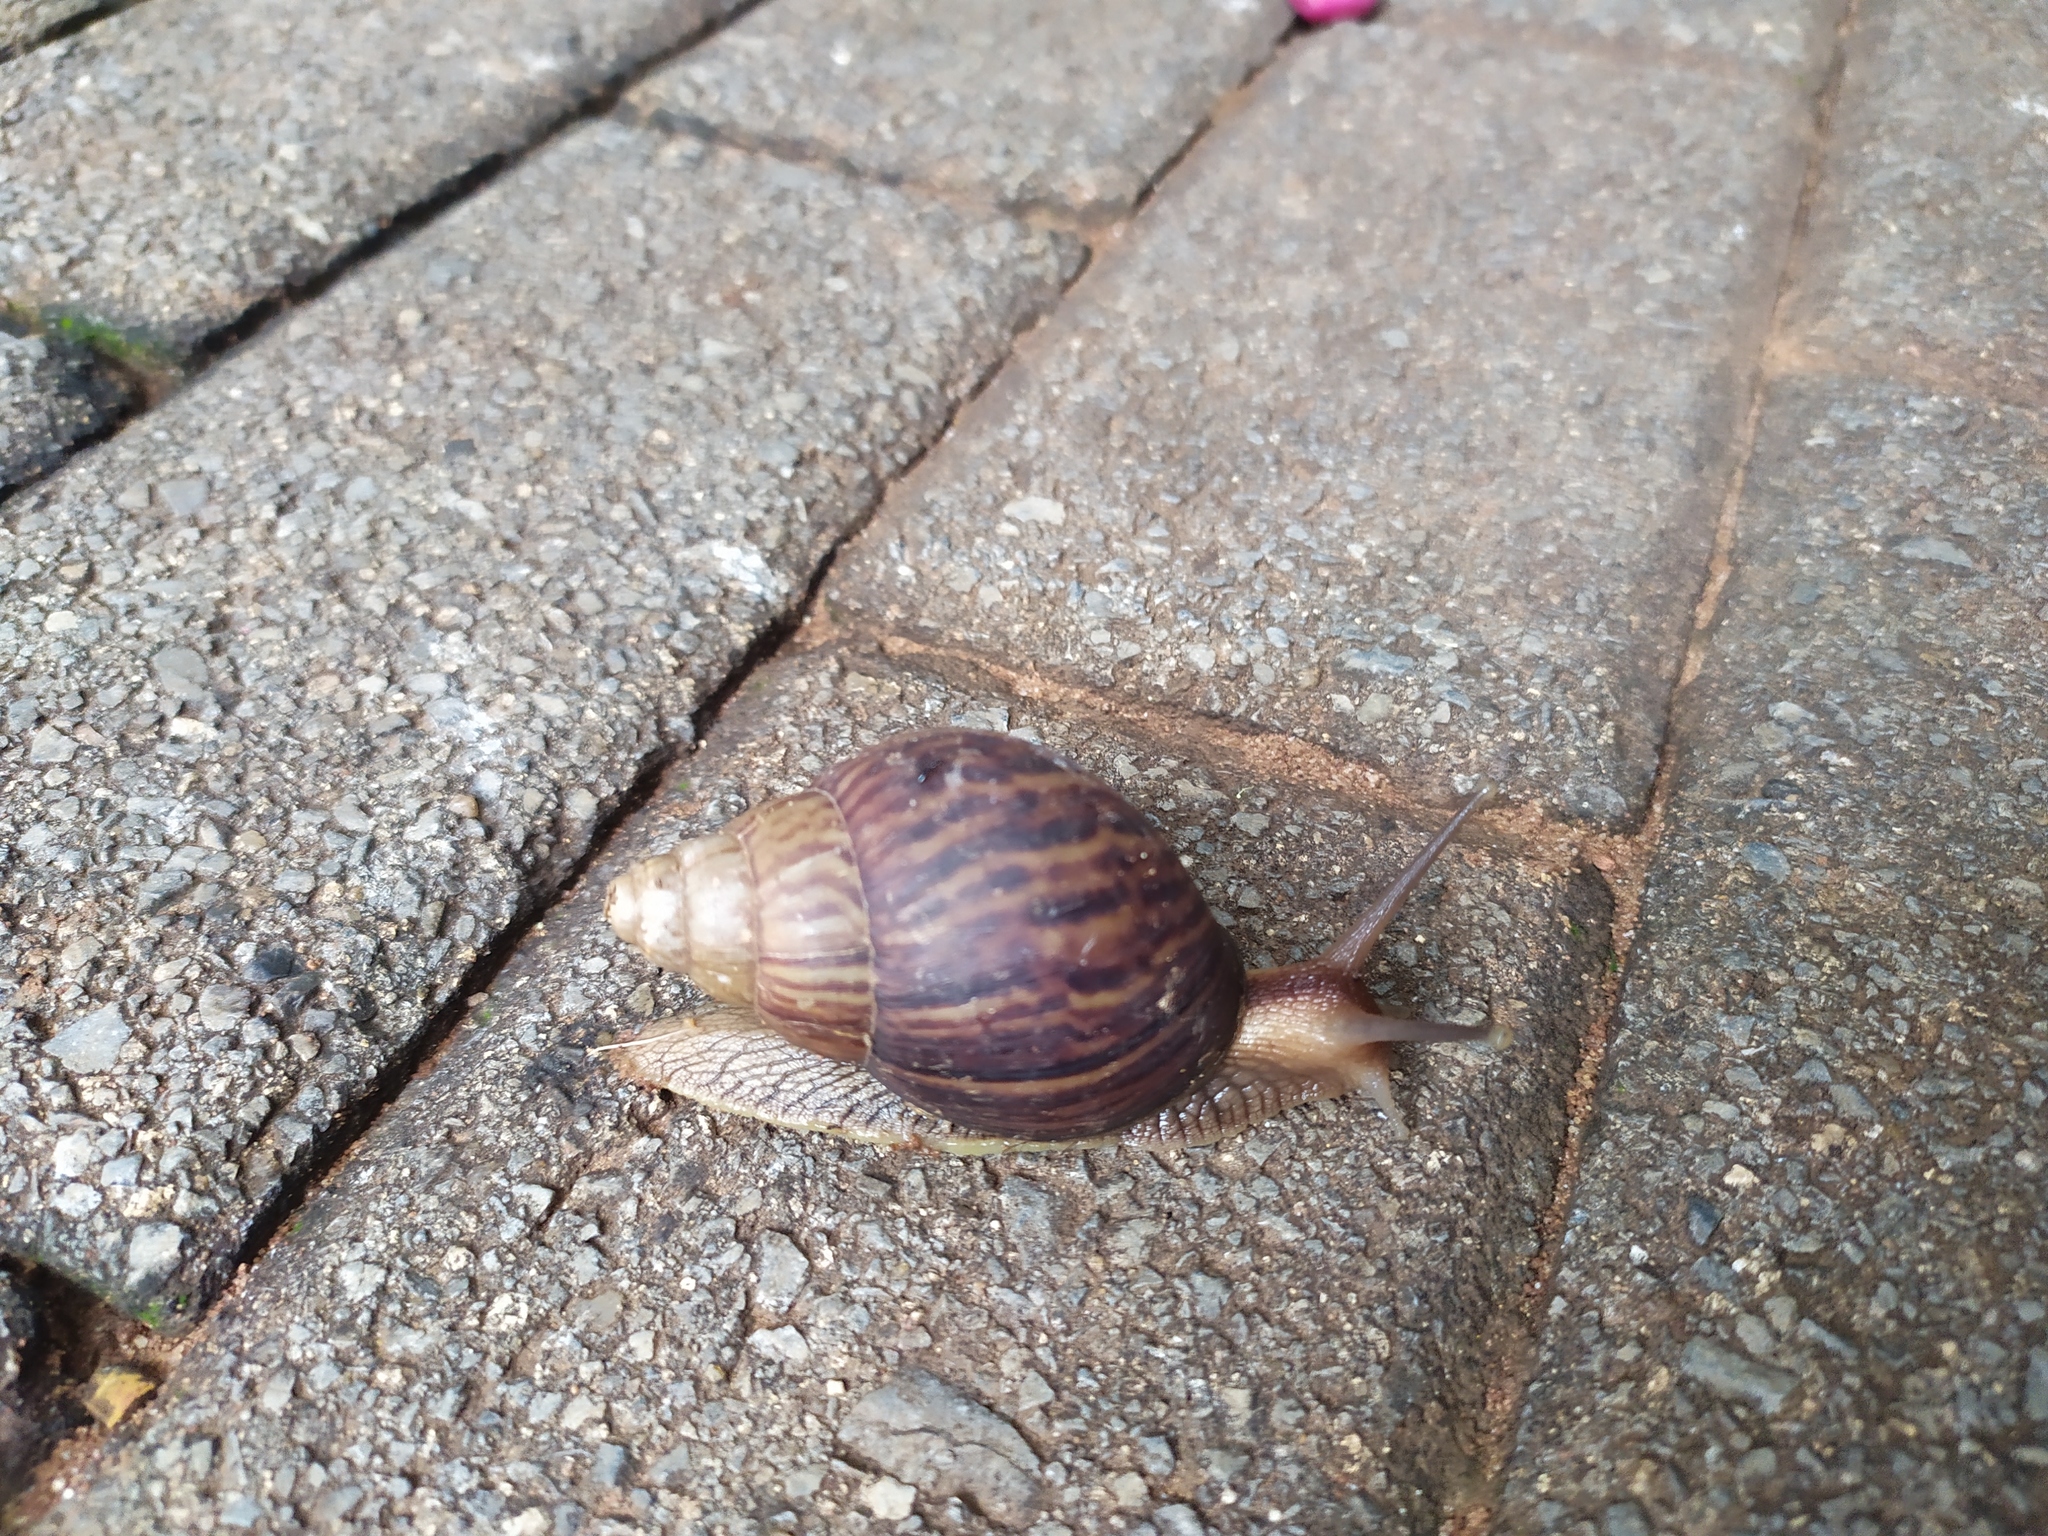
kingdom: Animalia
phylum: Mollusca
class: Gastropoda
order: Stylommatophora
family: Achatinidae
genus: Lissachatina
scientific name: Lissachatina immaculata
